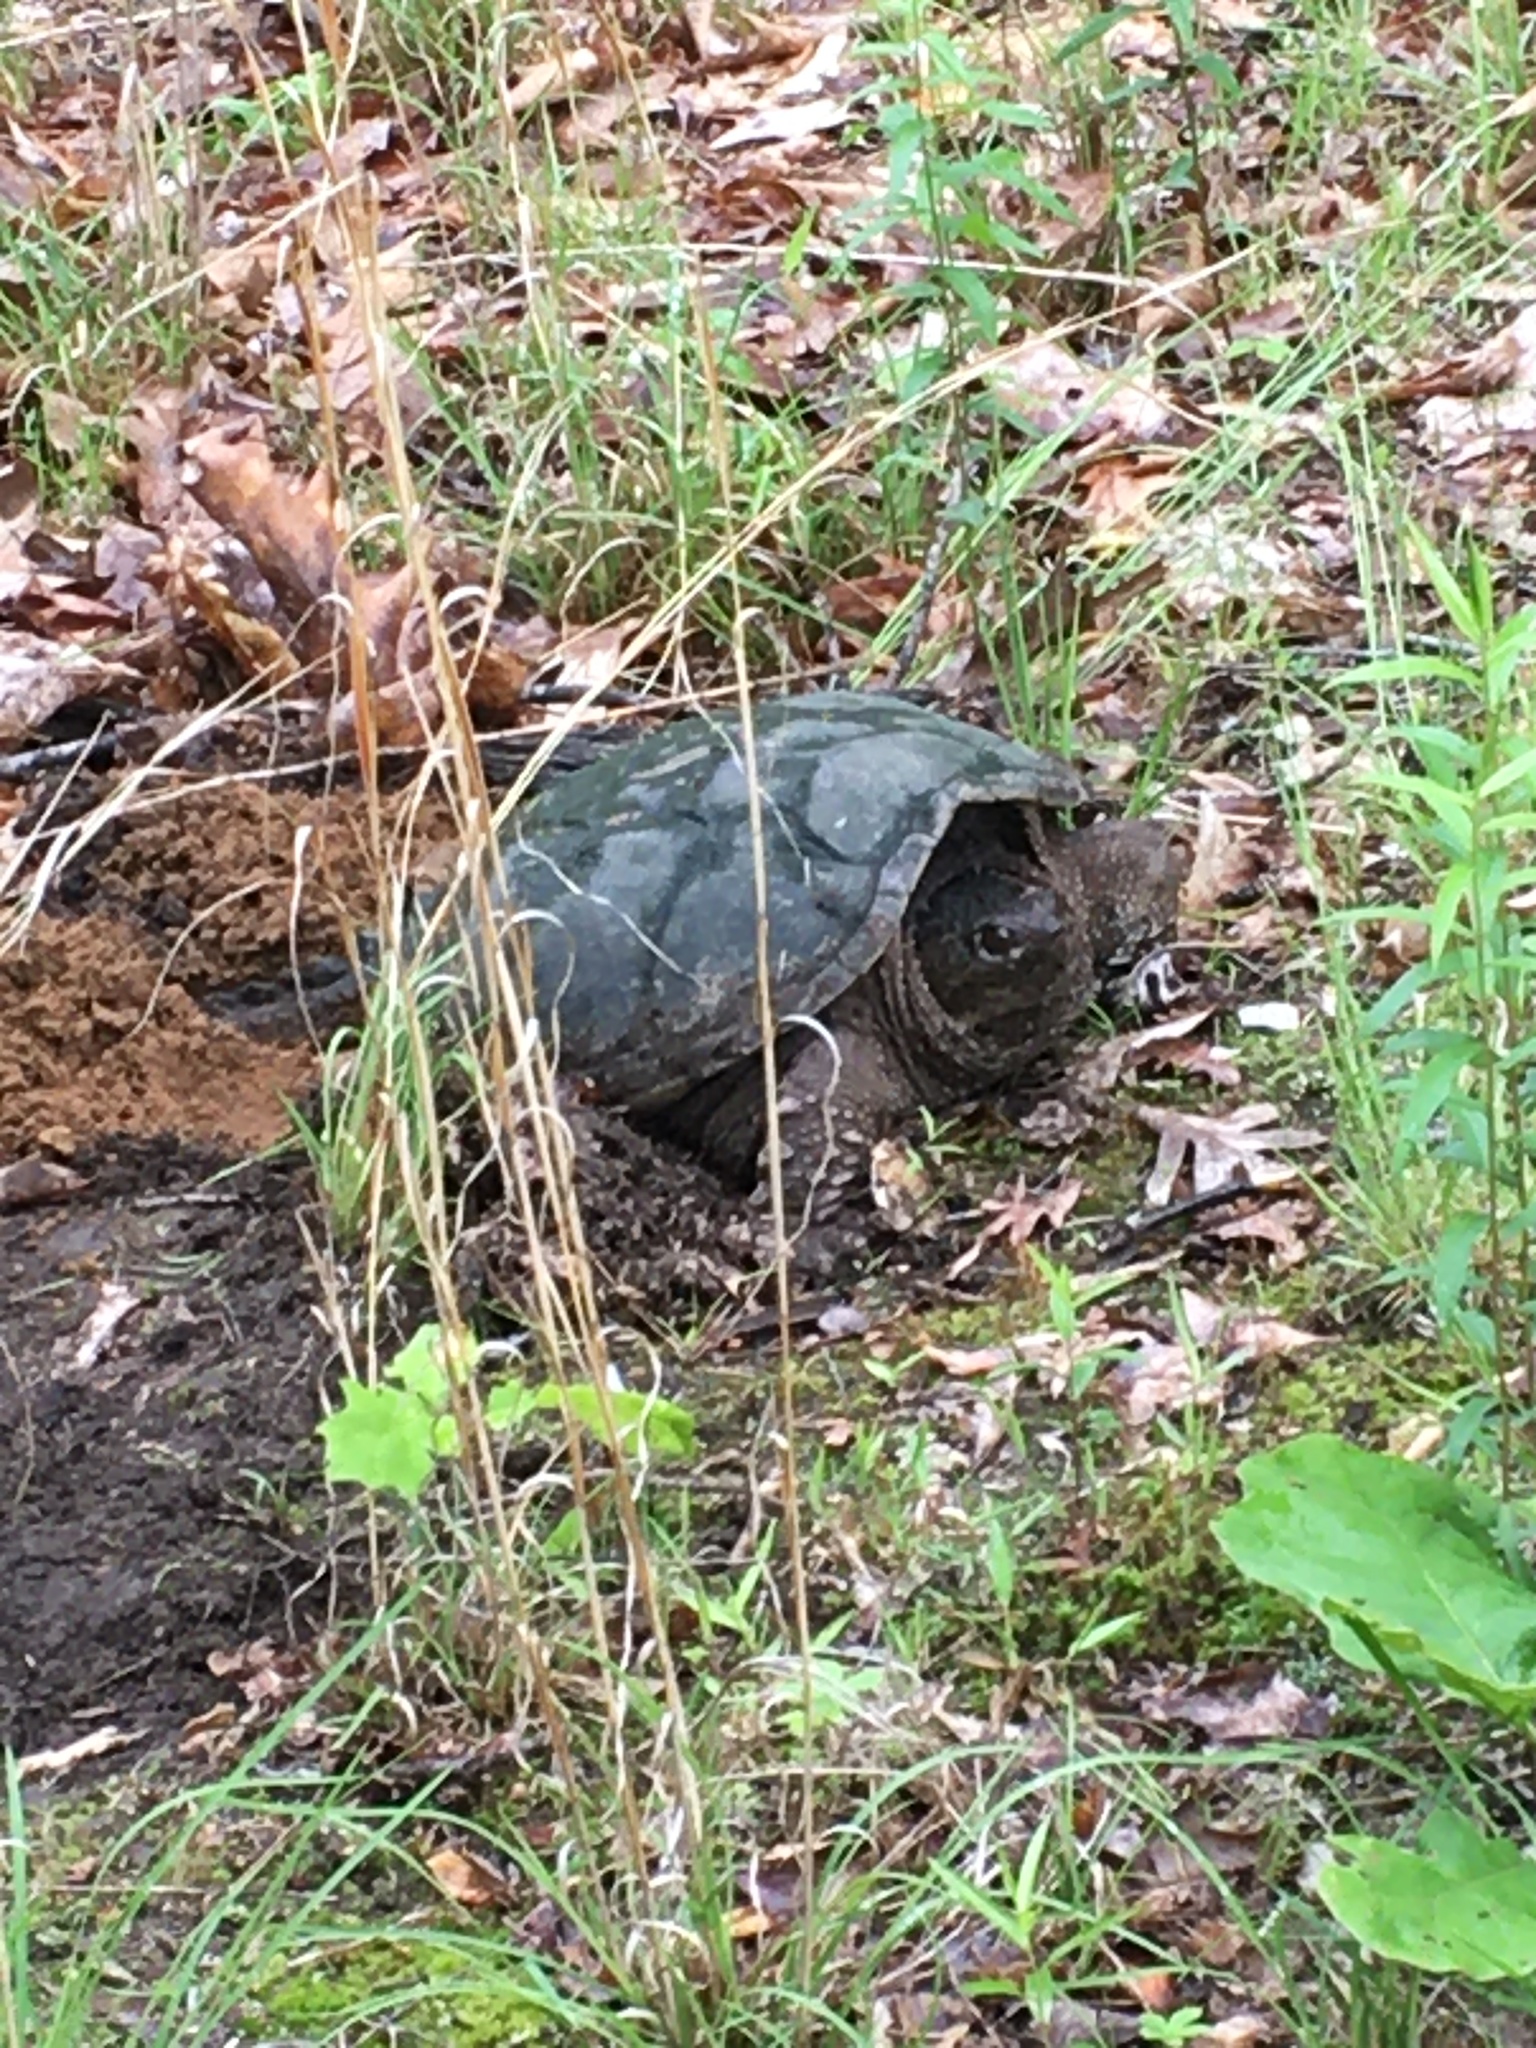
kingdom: Animalia
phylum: Chordata
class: Testudines
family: Chelydridae
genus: Chelydra
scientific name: Chelydra serpentina
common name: Common snapping turtle
